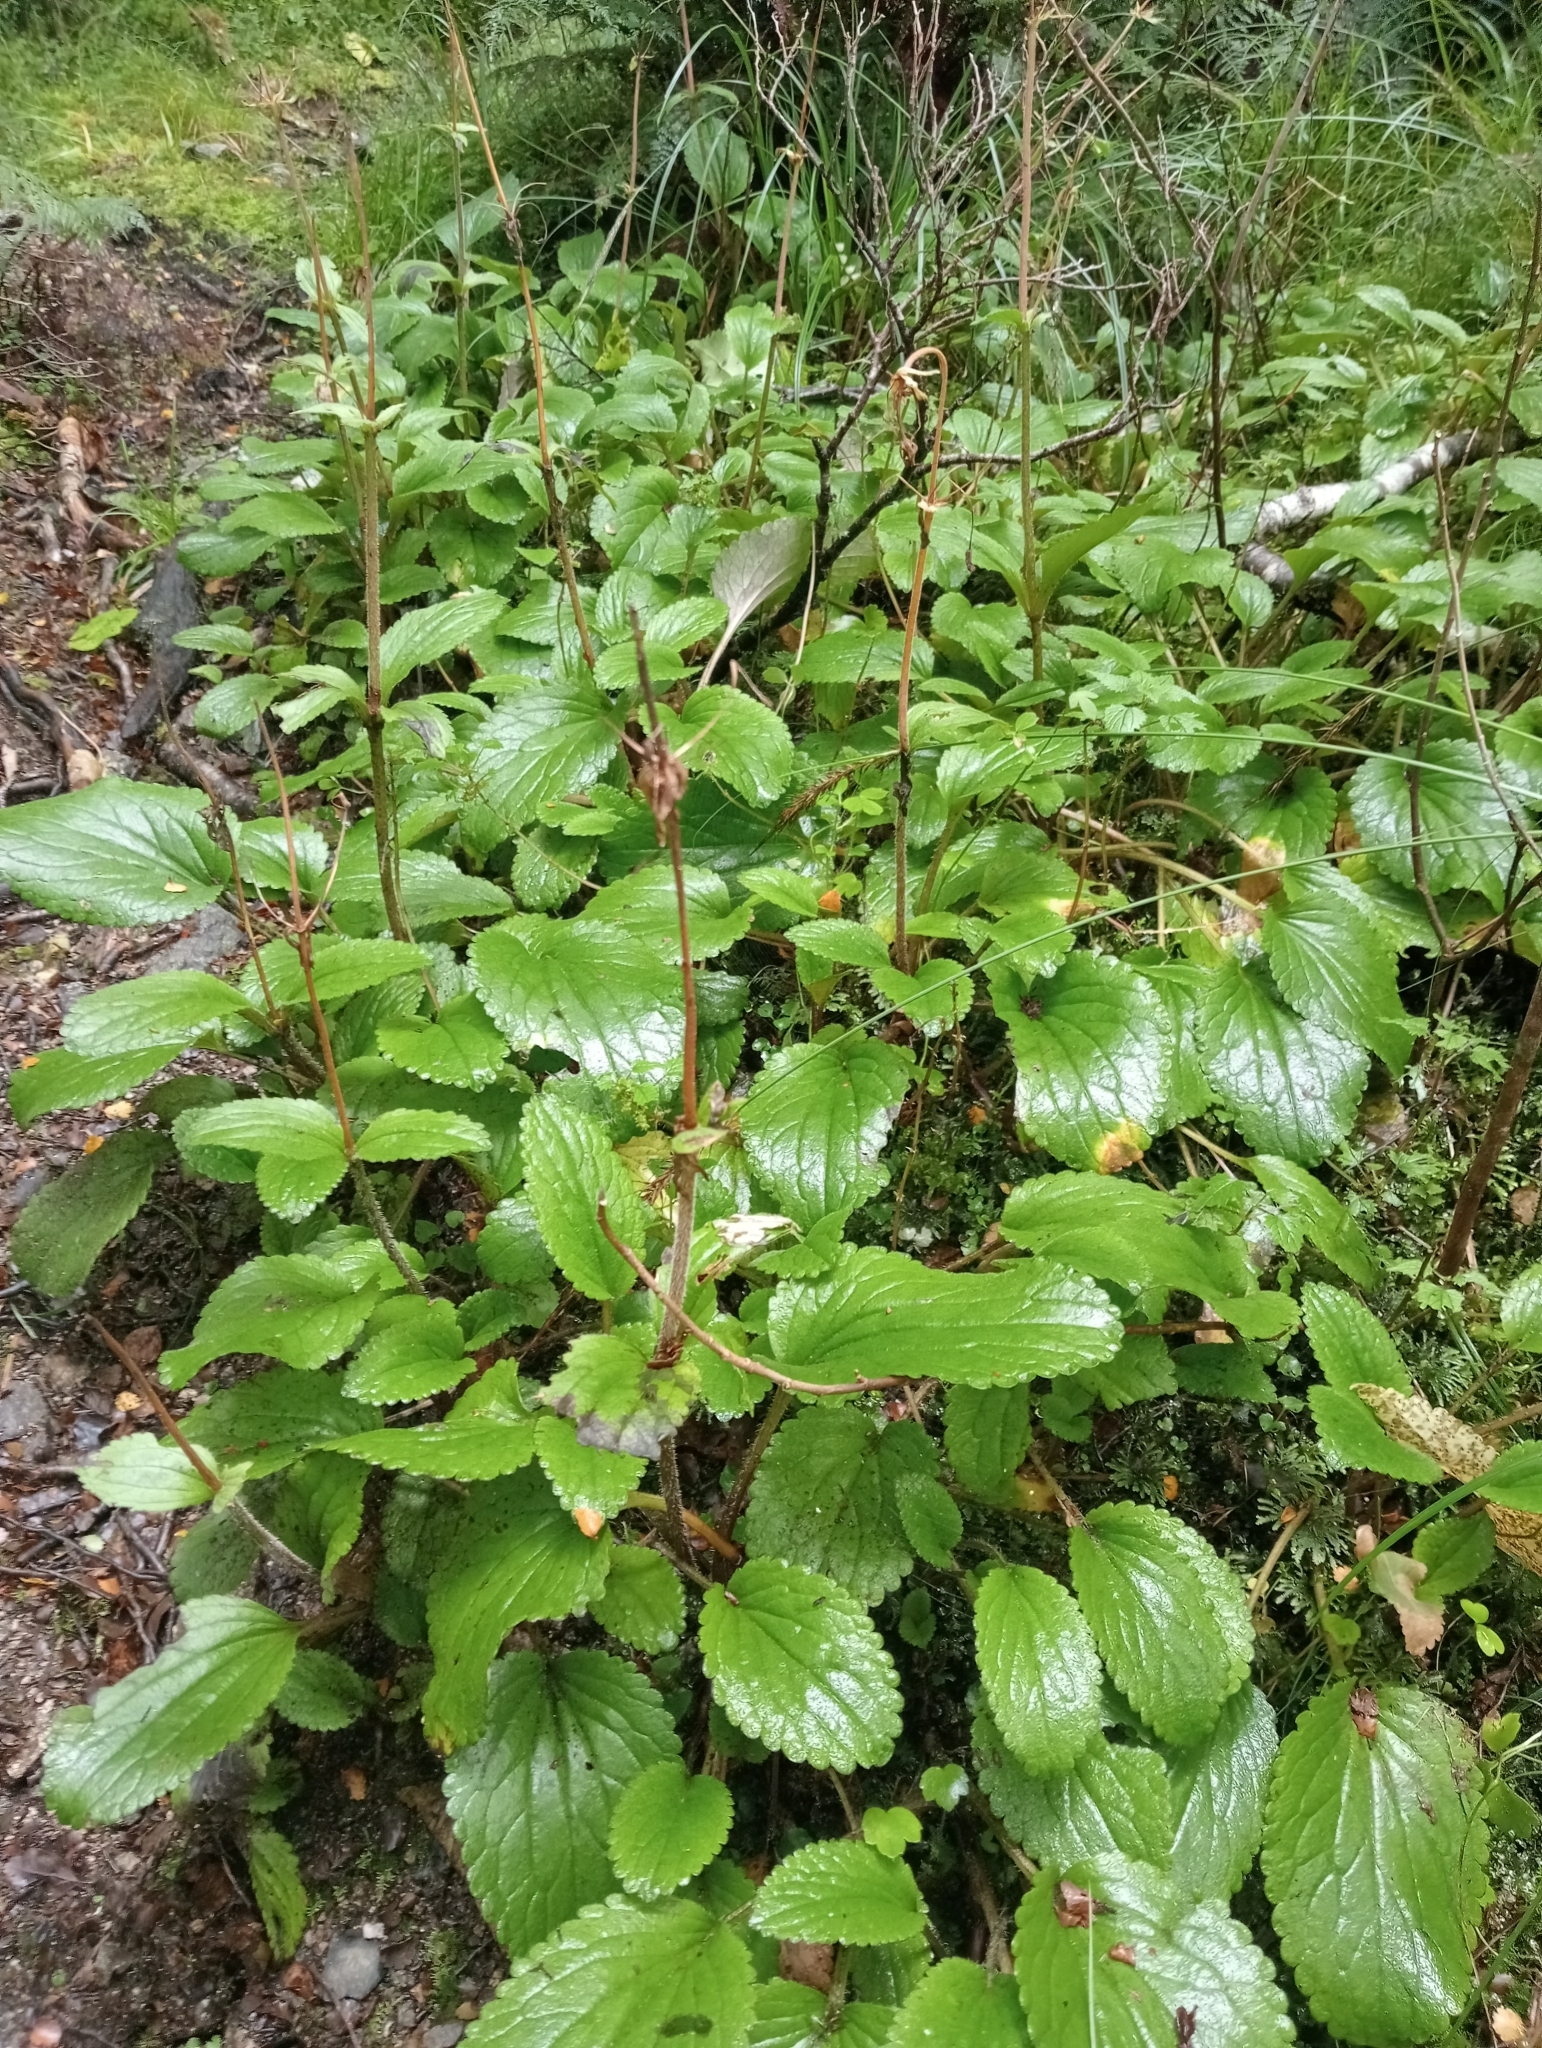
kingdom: Plantae
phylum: Tracheophyta
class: Magnoliopsida
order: Lamiales
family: Plantaginaceae
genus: Ourisia
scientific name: Ourisia macrophylla
